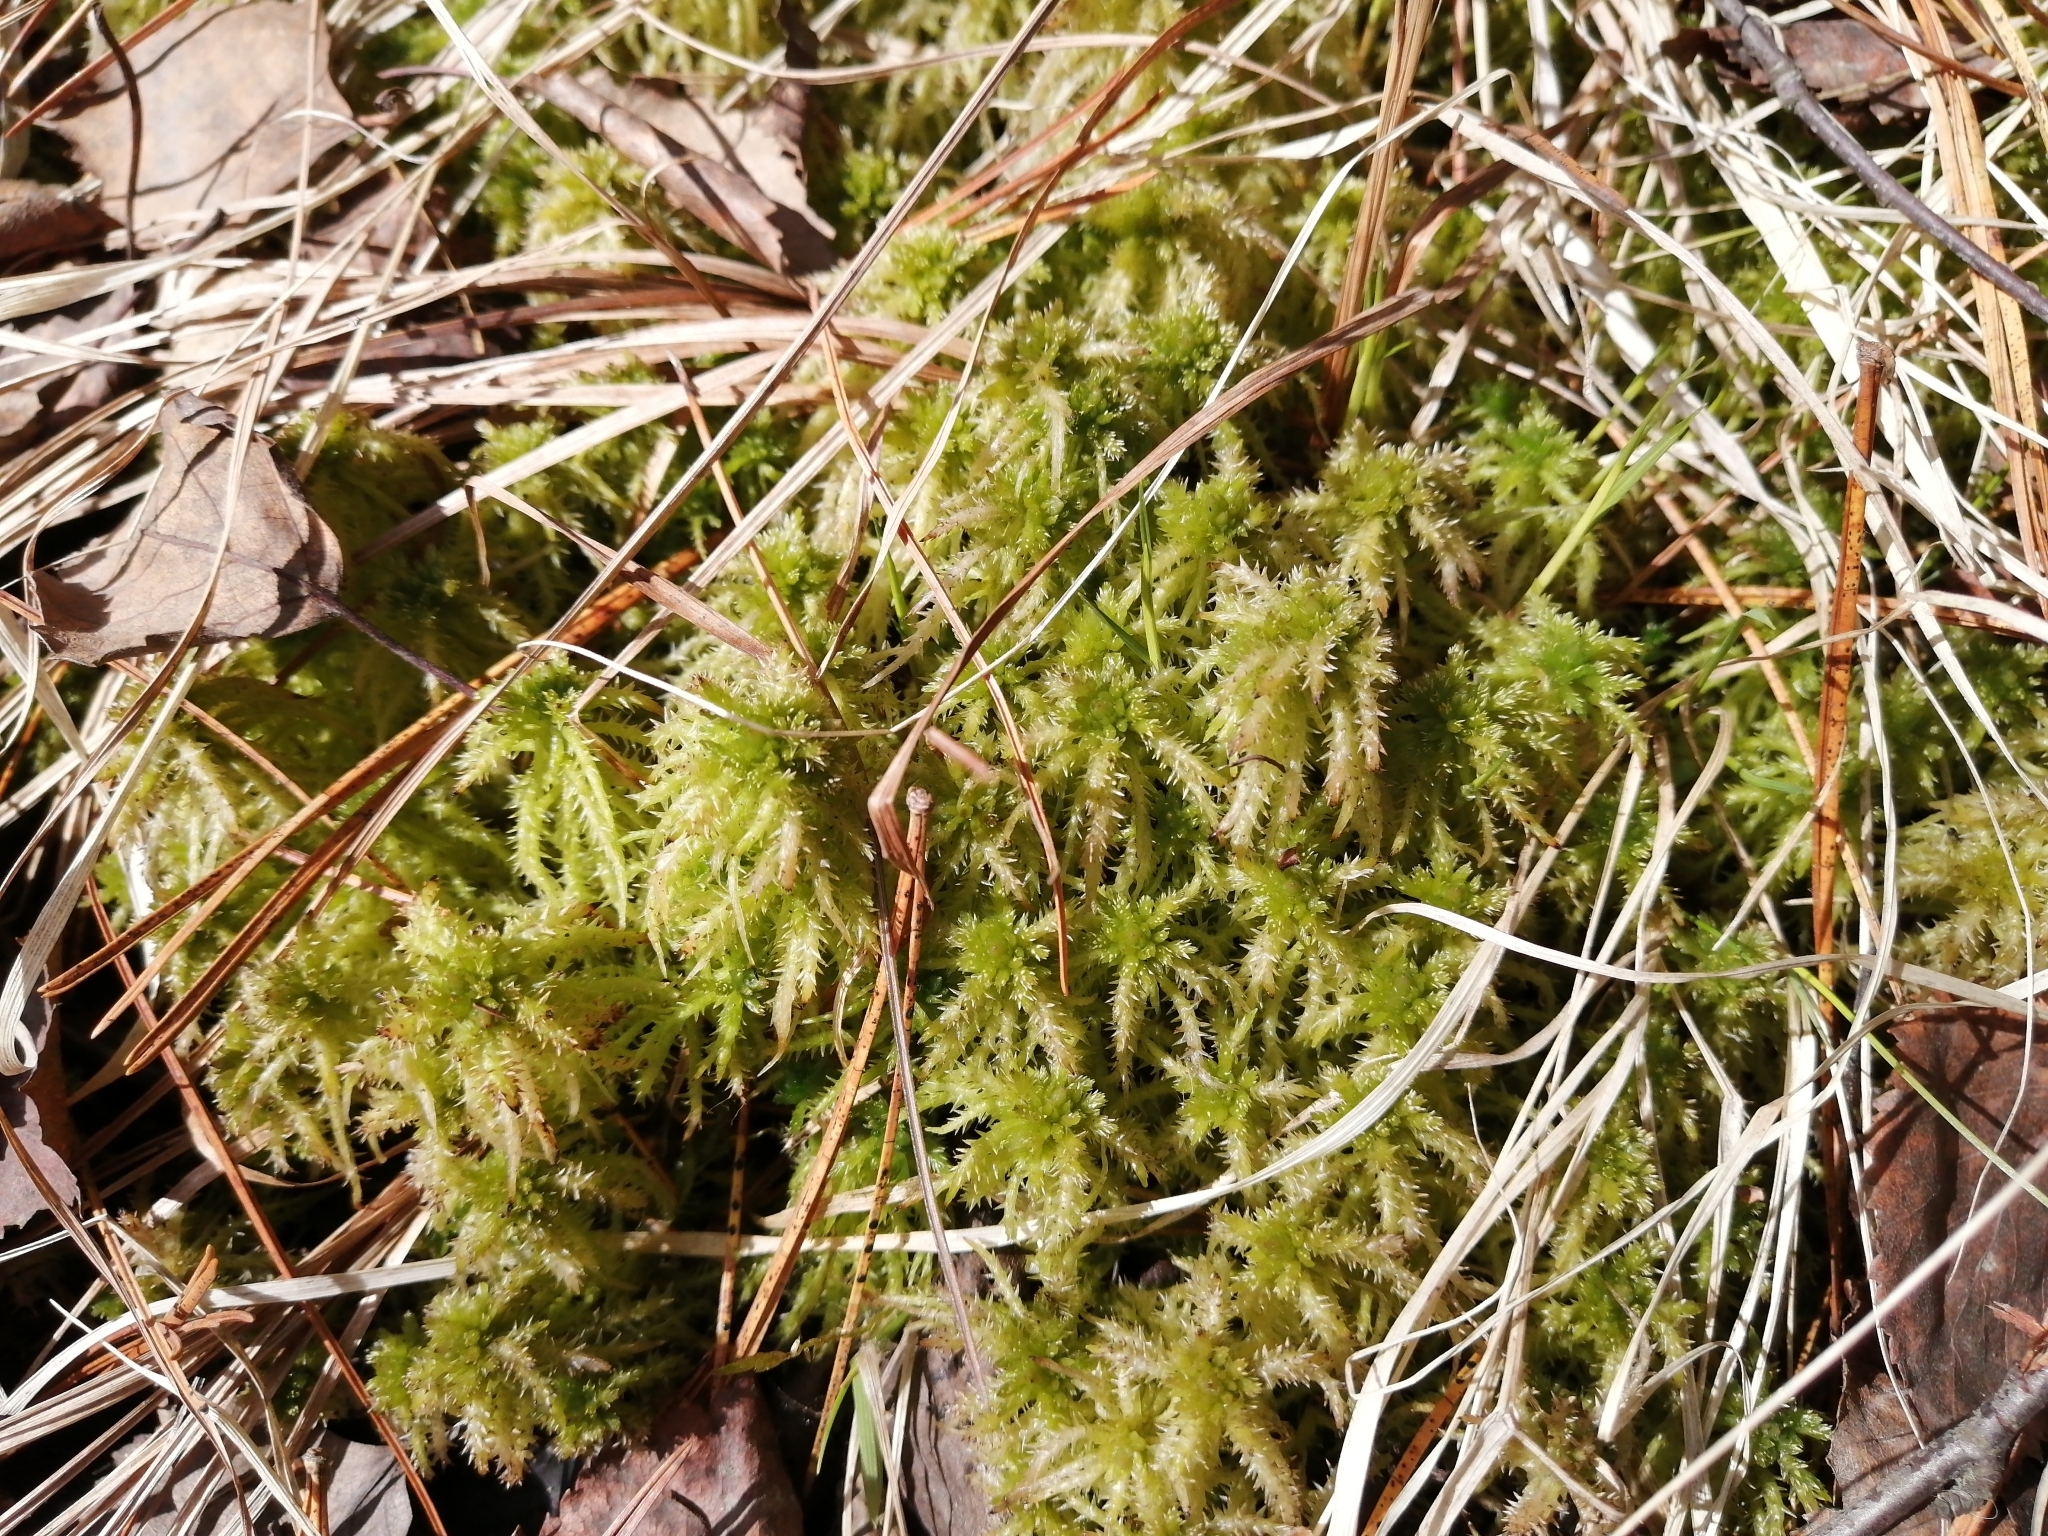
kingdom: Plantae
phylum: Bryophyta
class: Sphagnopsida
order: Sphagnales
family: Sphagnaceae
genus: Sphagnum
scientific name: Sphagnum squarrosum
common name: Shaggy peat moss
